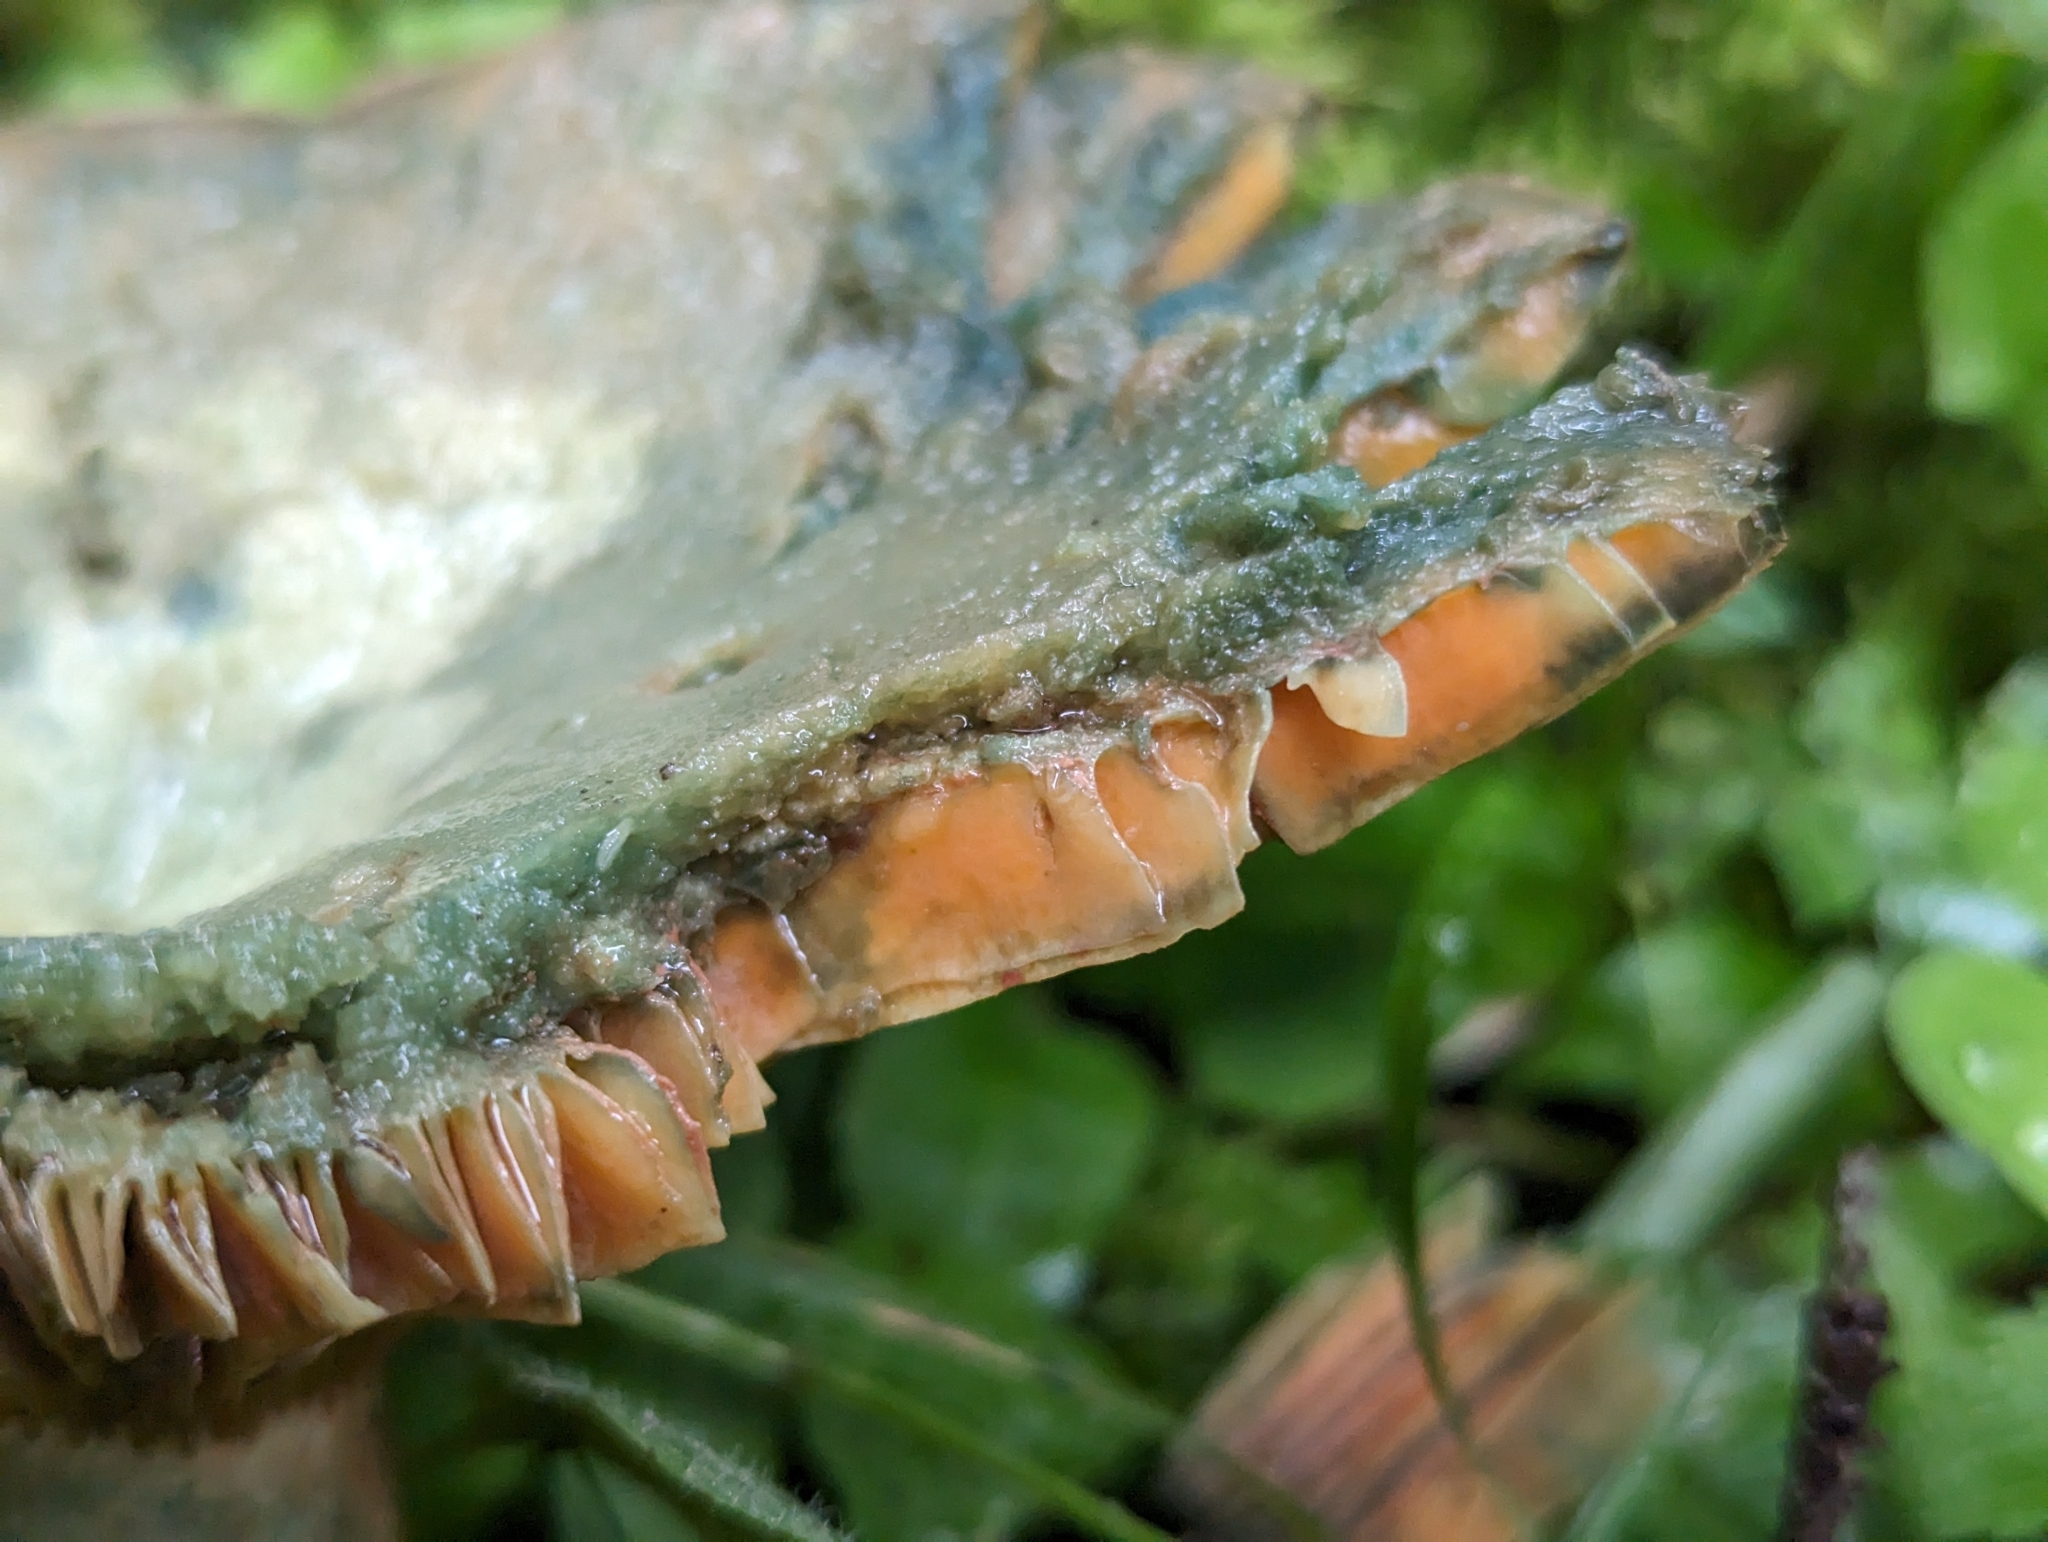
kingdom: Fungi
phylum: Basidiomycota
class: Agaricomycetes
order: Russulales
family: Russulaceae
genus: Lactarius
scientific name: Lactarius deterrimus
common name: False saffron milkcap
